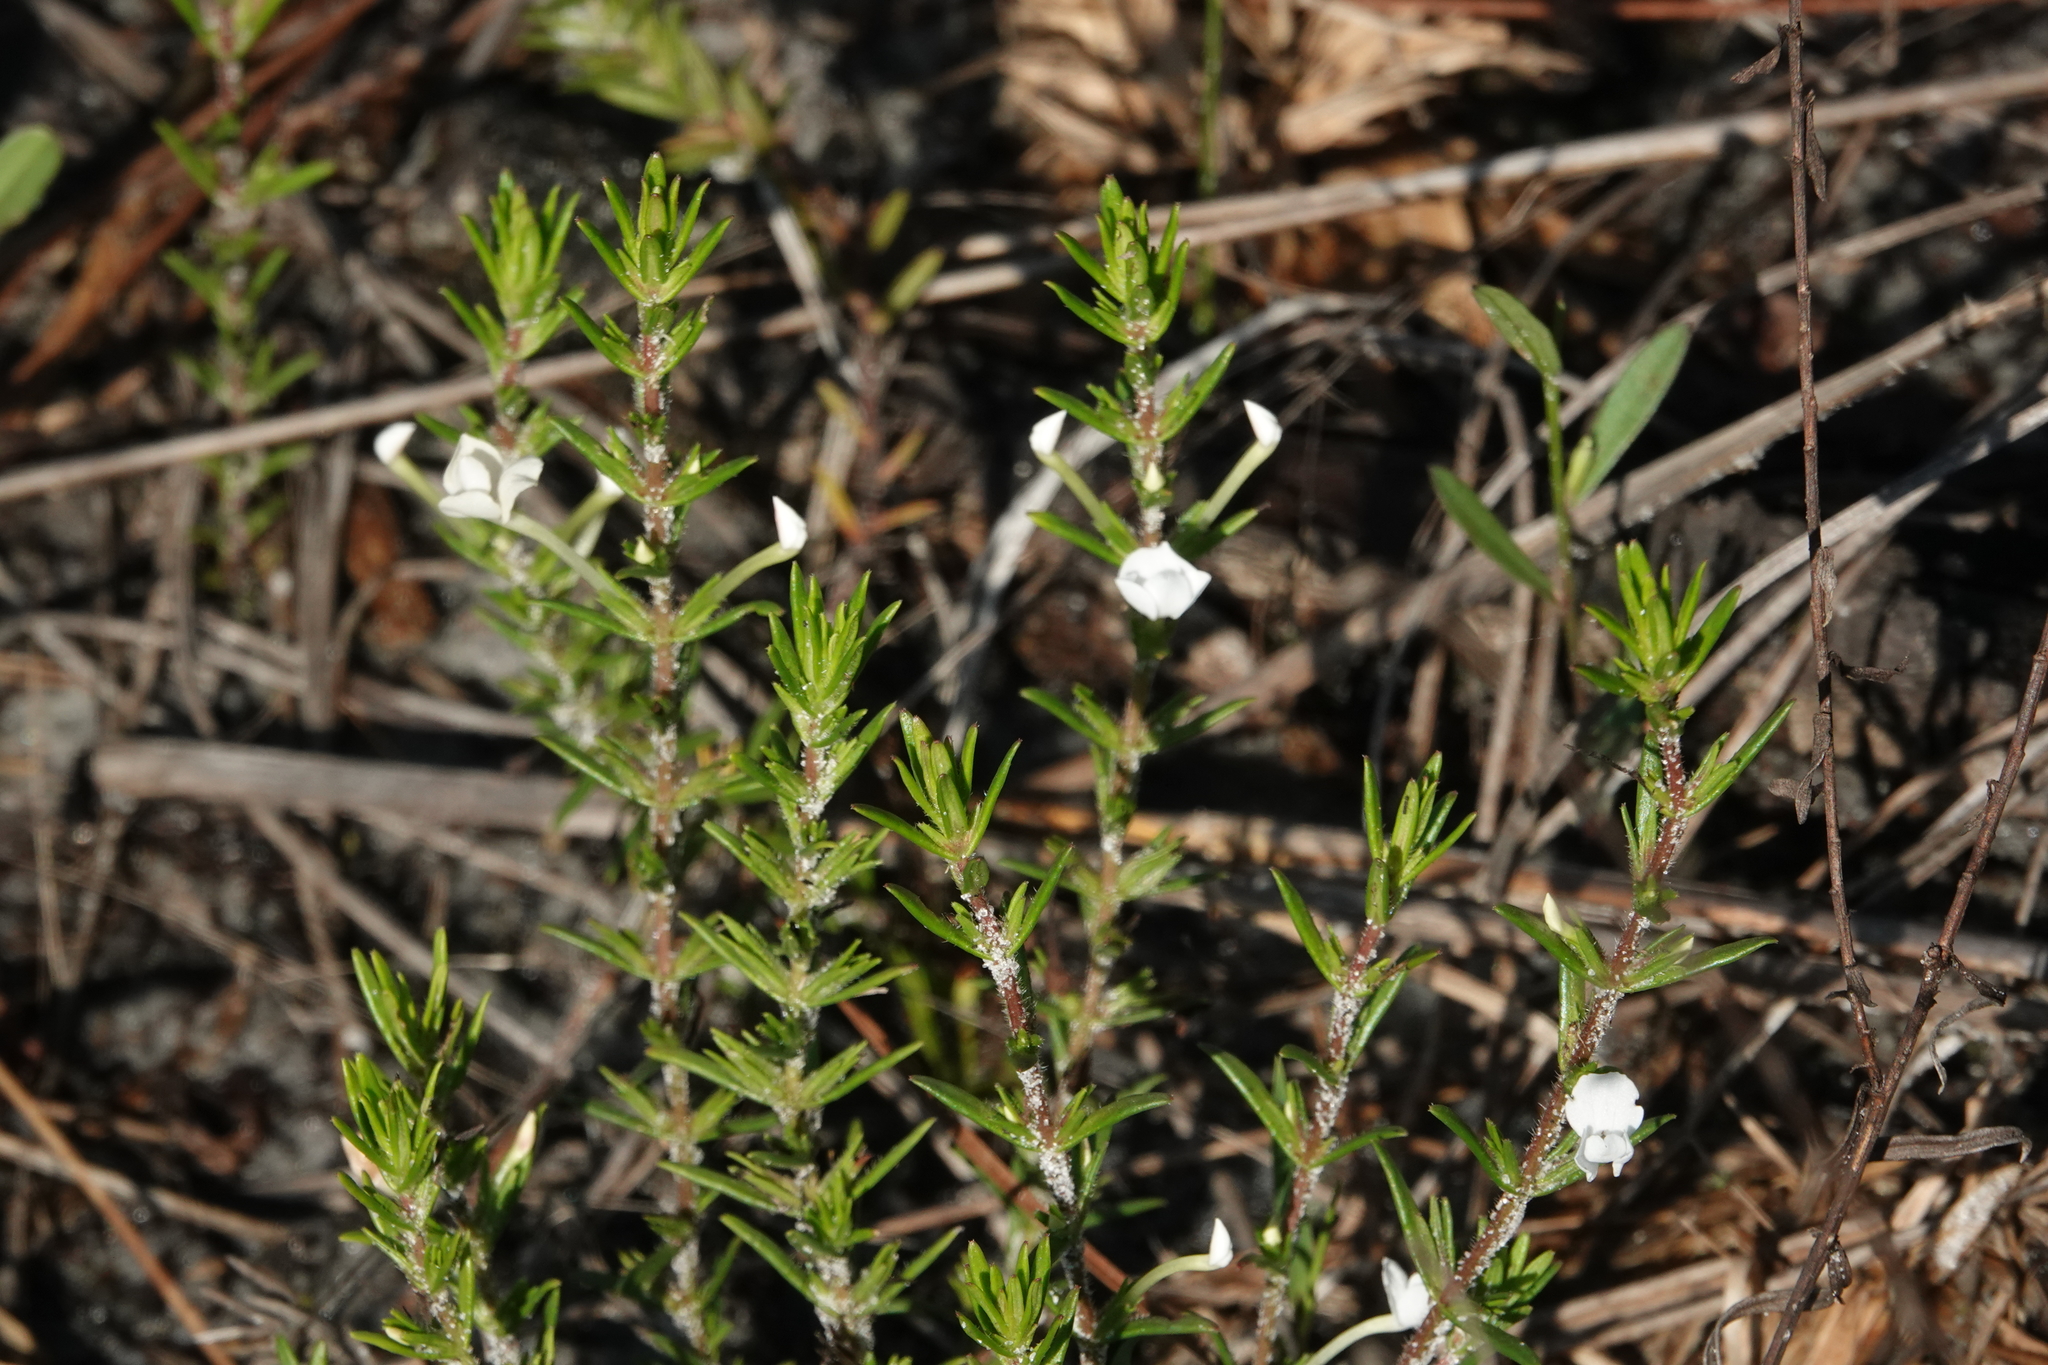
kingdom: Plantae
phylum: Tracheophyta
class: Magnoliopsida
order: Lamiales
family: Plantaginaceae
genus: Gratiola
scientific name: Gratiola hispida
